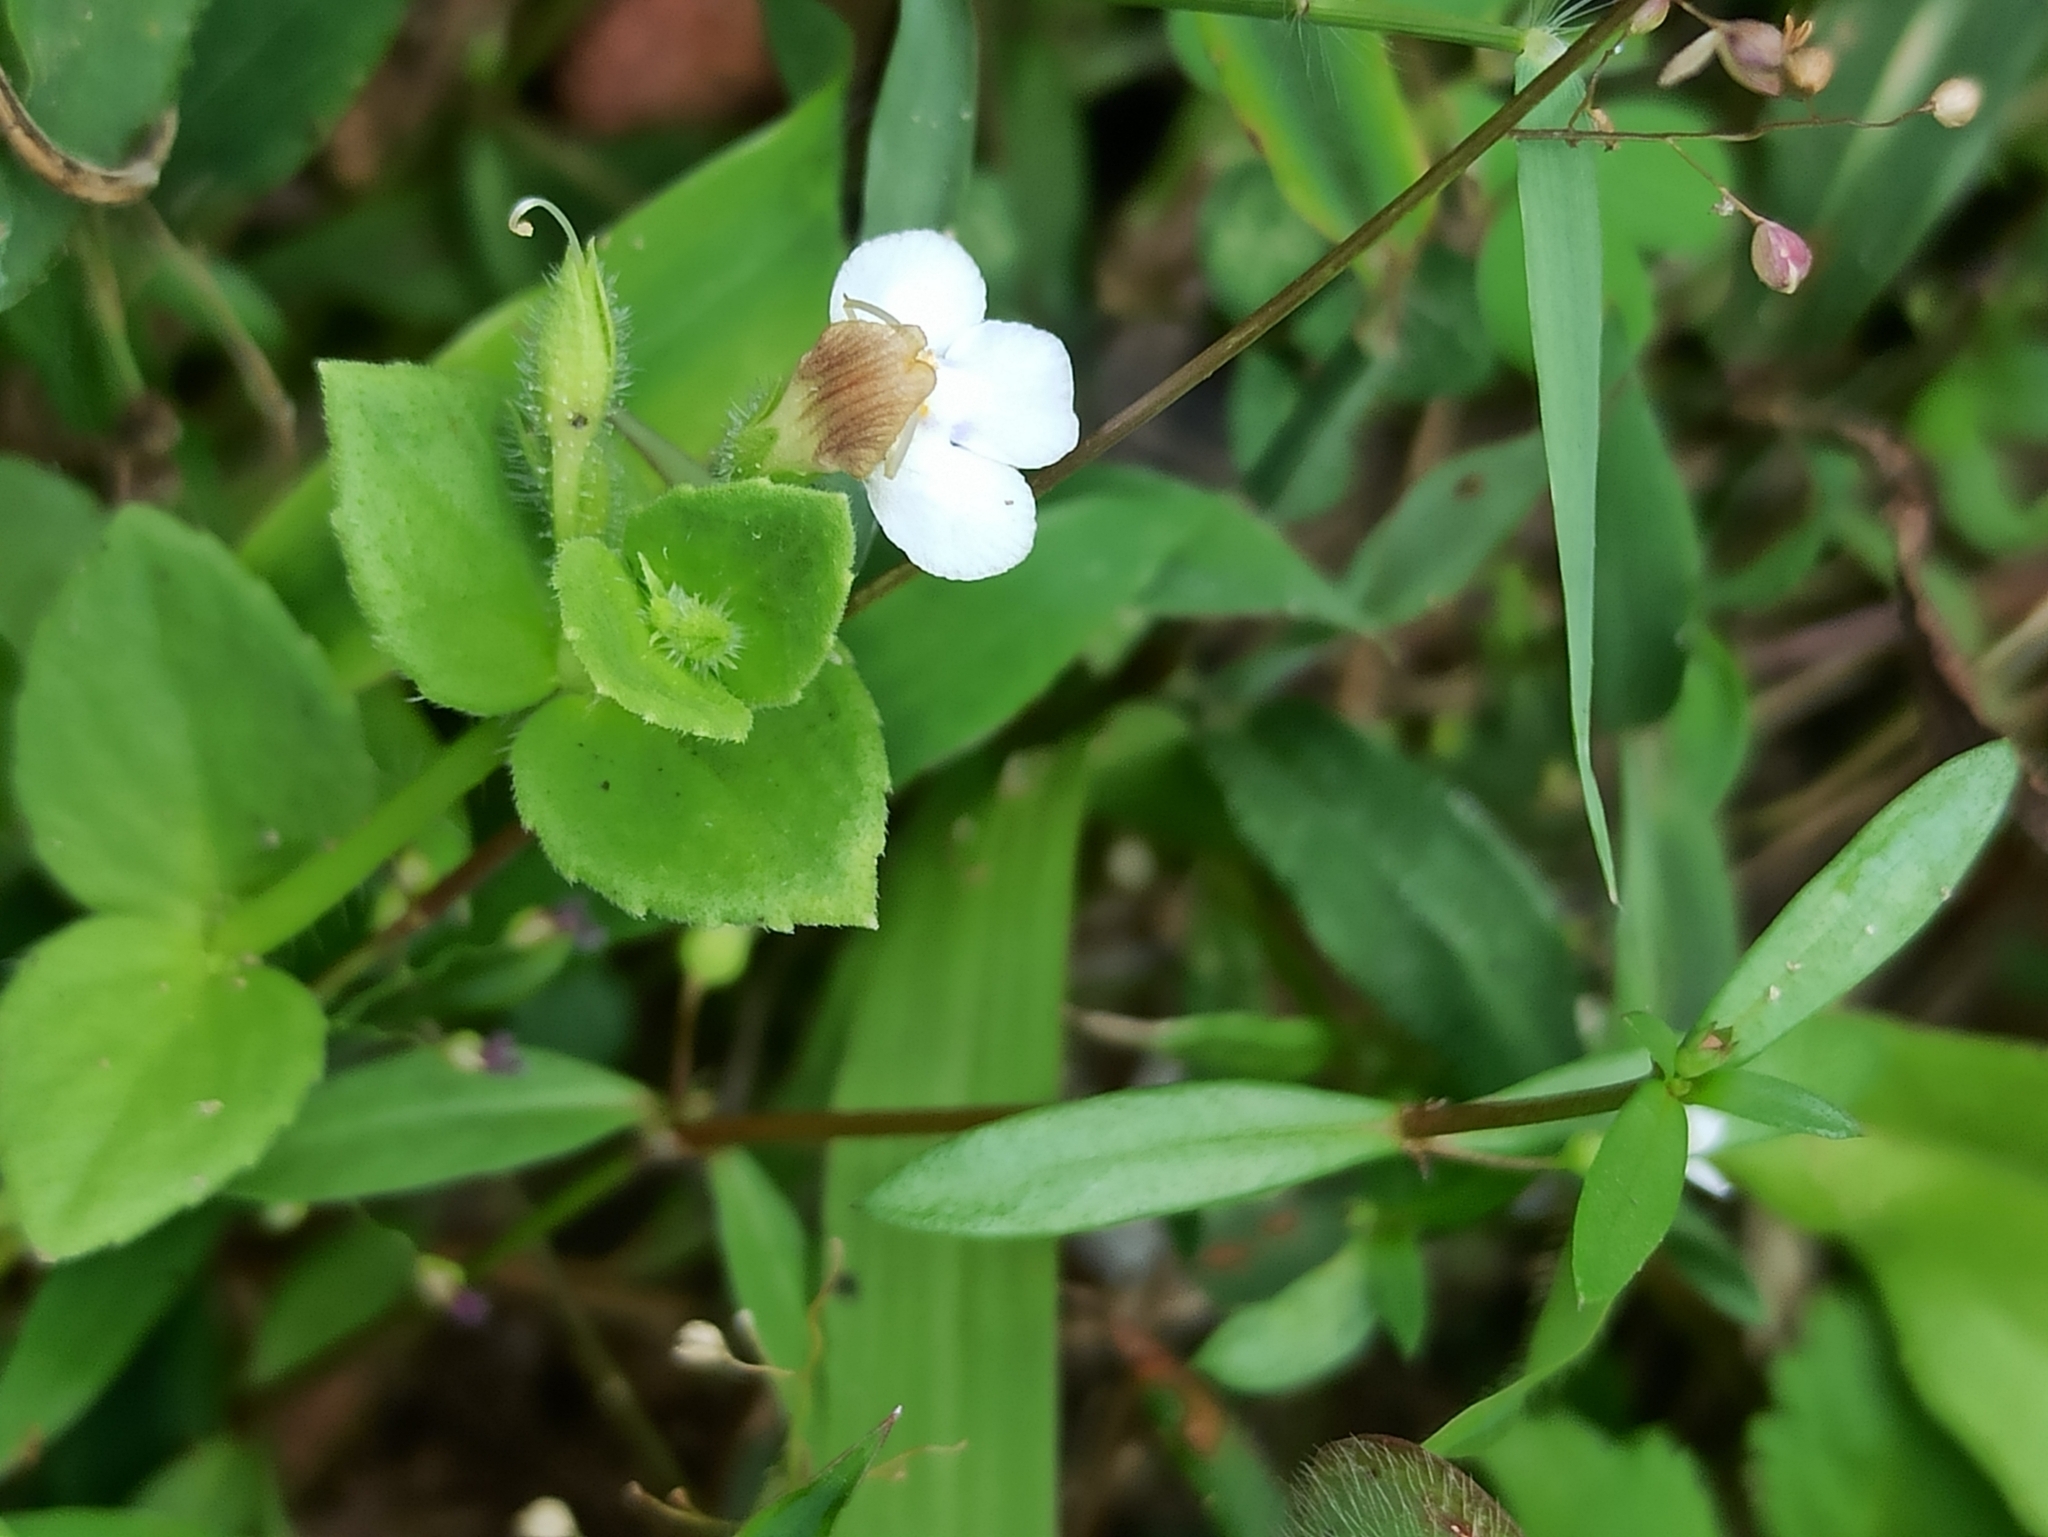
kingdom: Plantae
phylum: Tracheophyta
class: Magnoliopsida
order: Lamiales
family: Linderniaceae
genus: Yamazakia
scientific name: Yamazakia pusilla
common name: Tiny slitwort
